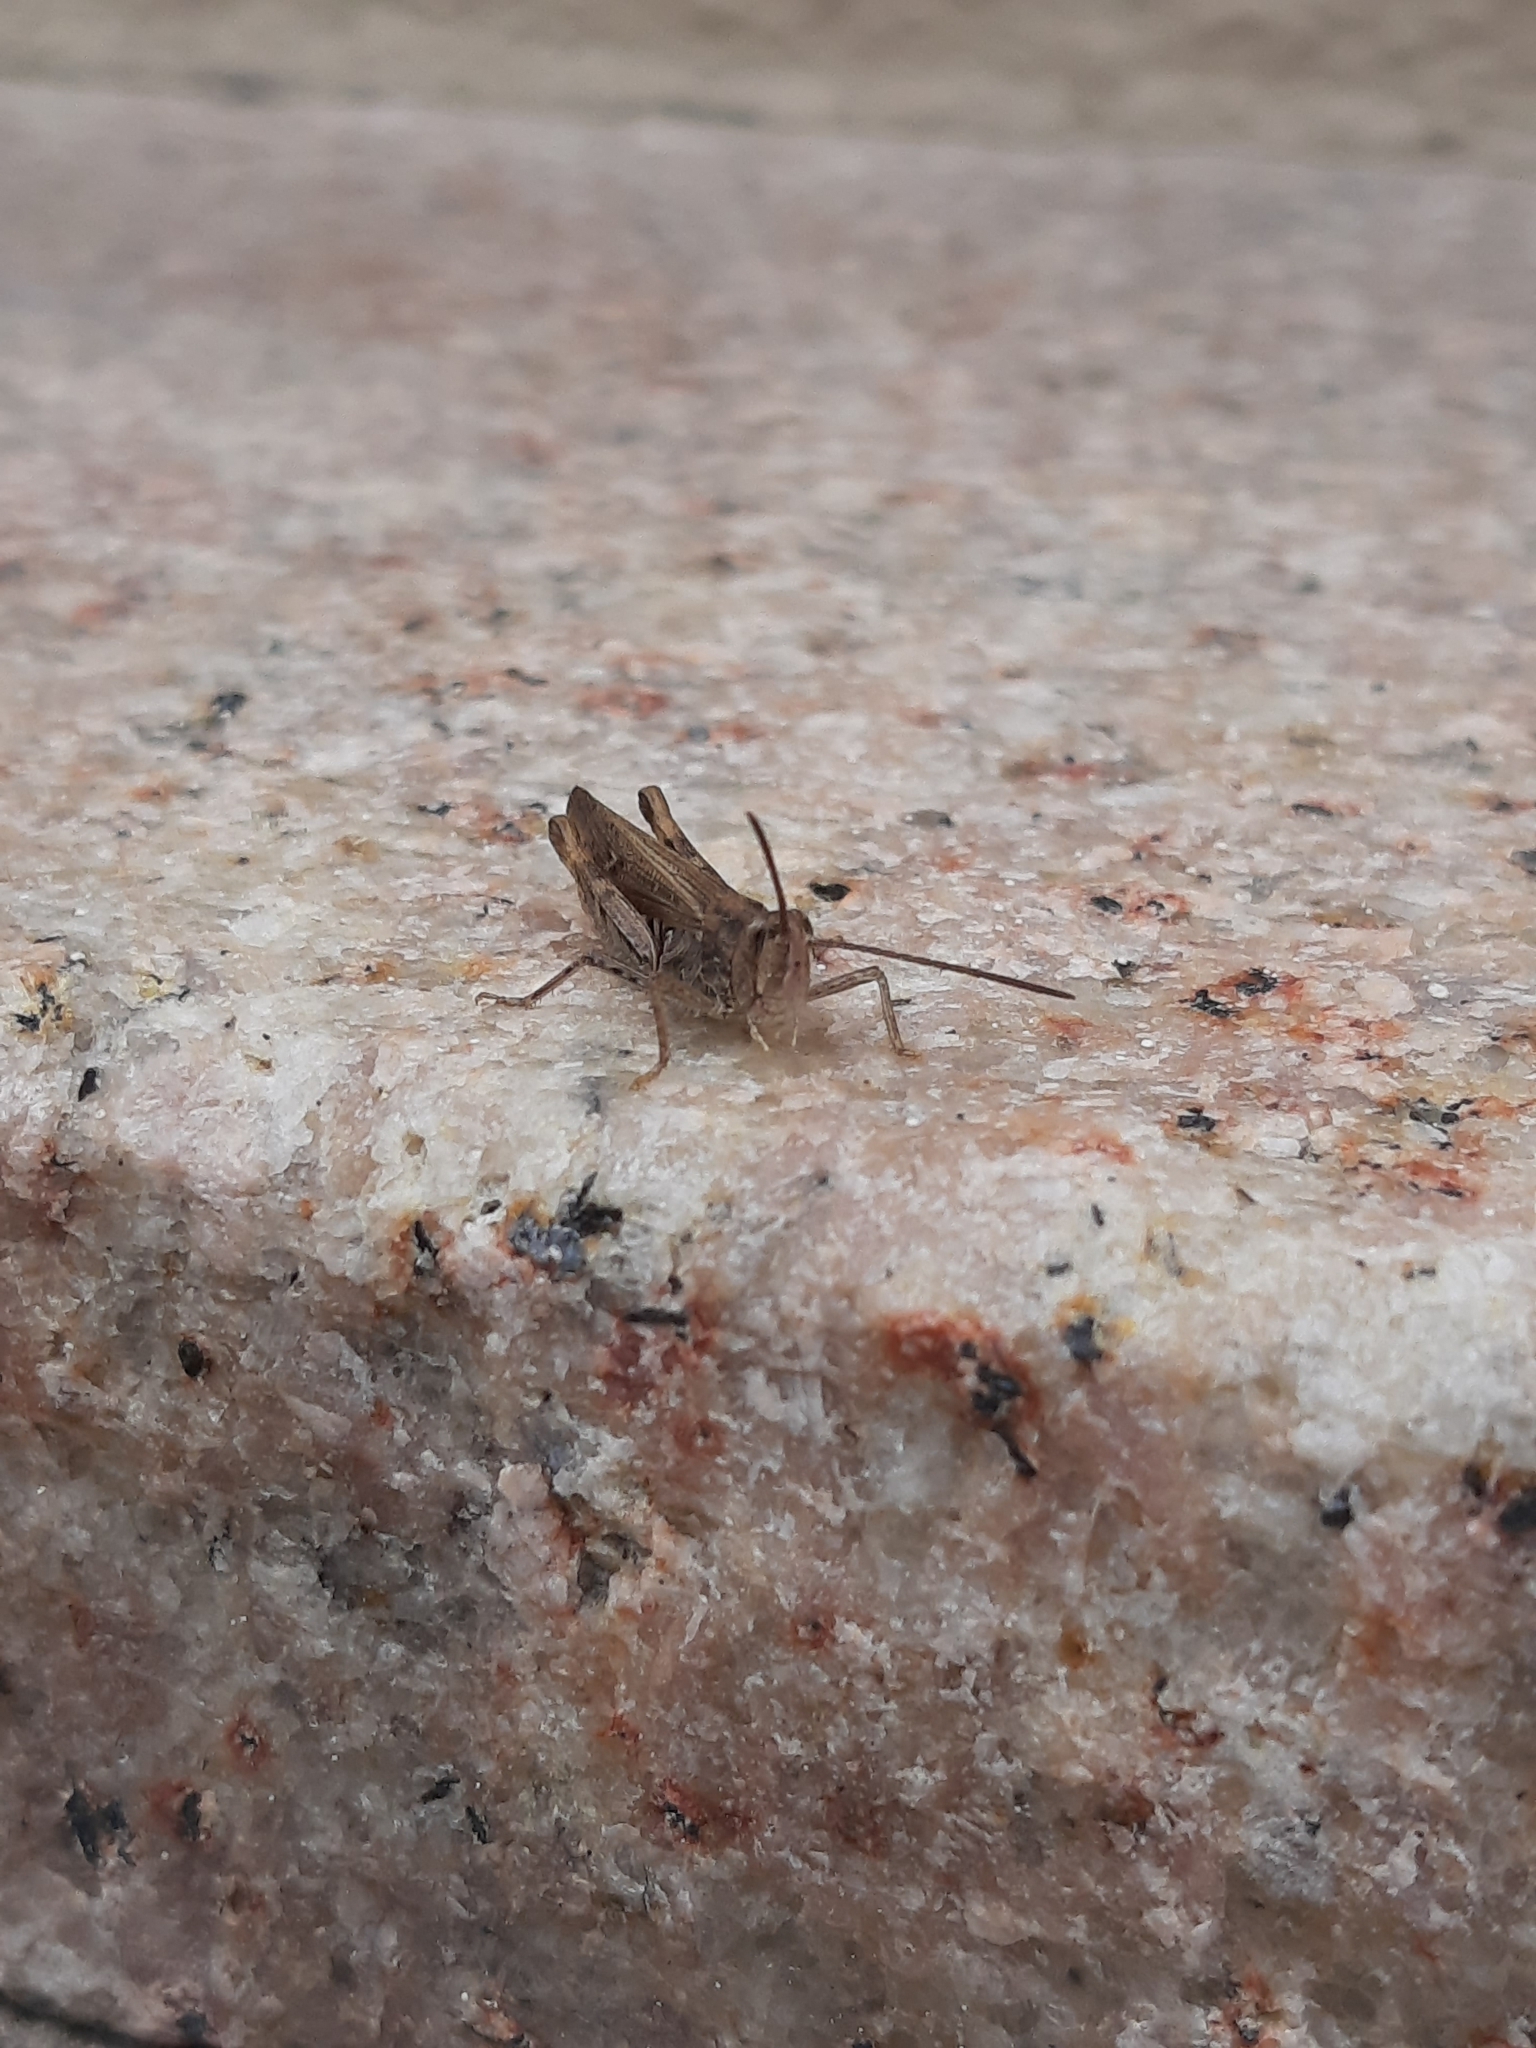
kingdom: Animalia
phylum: Arthropoda
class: Insecta
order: Orthoptera
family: Acrididae
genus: Chorthippus
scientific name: Chorthippus brunneus
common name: Field grasshopper
